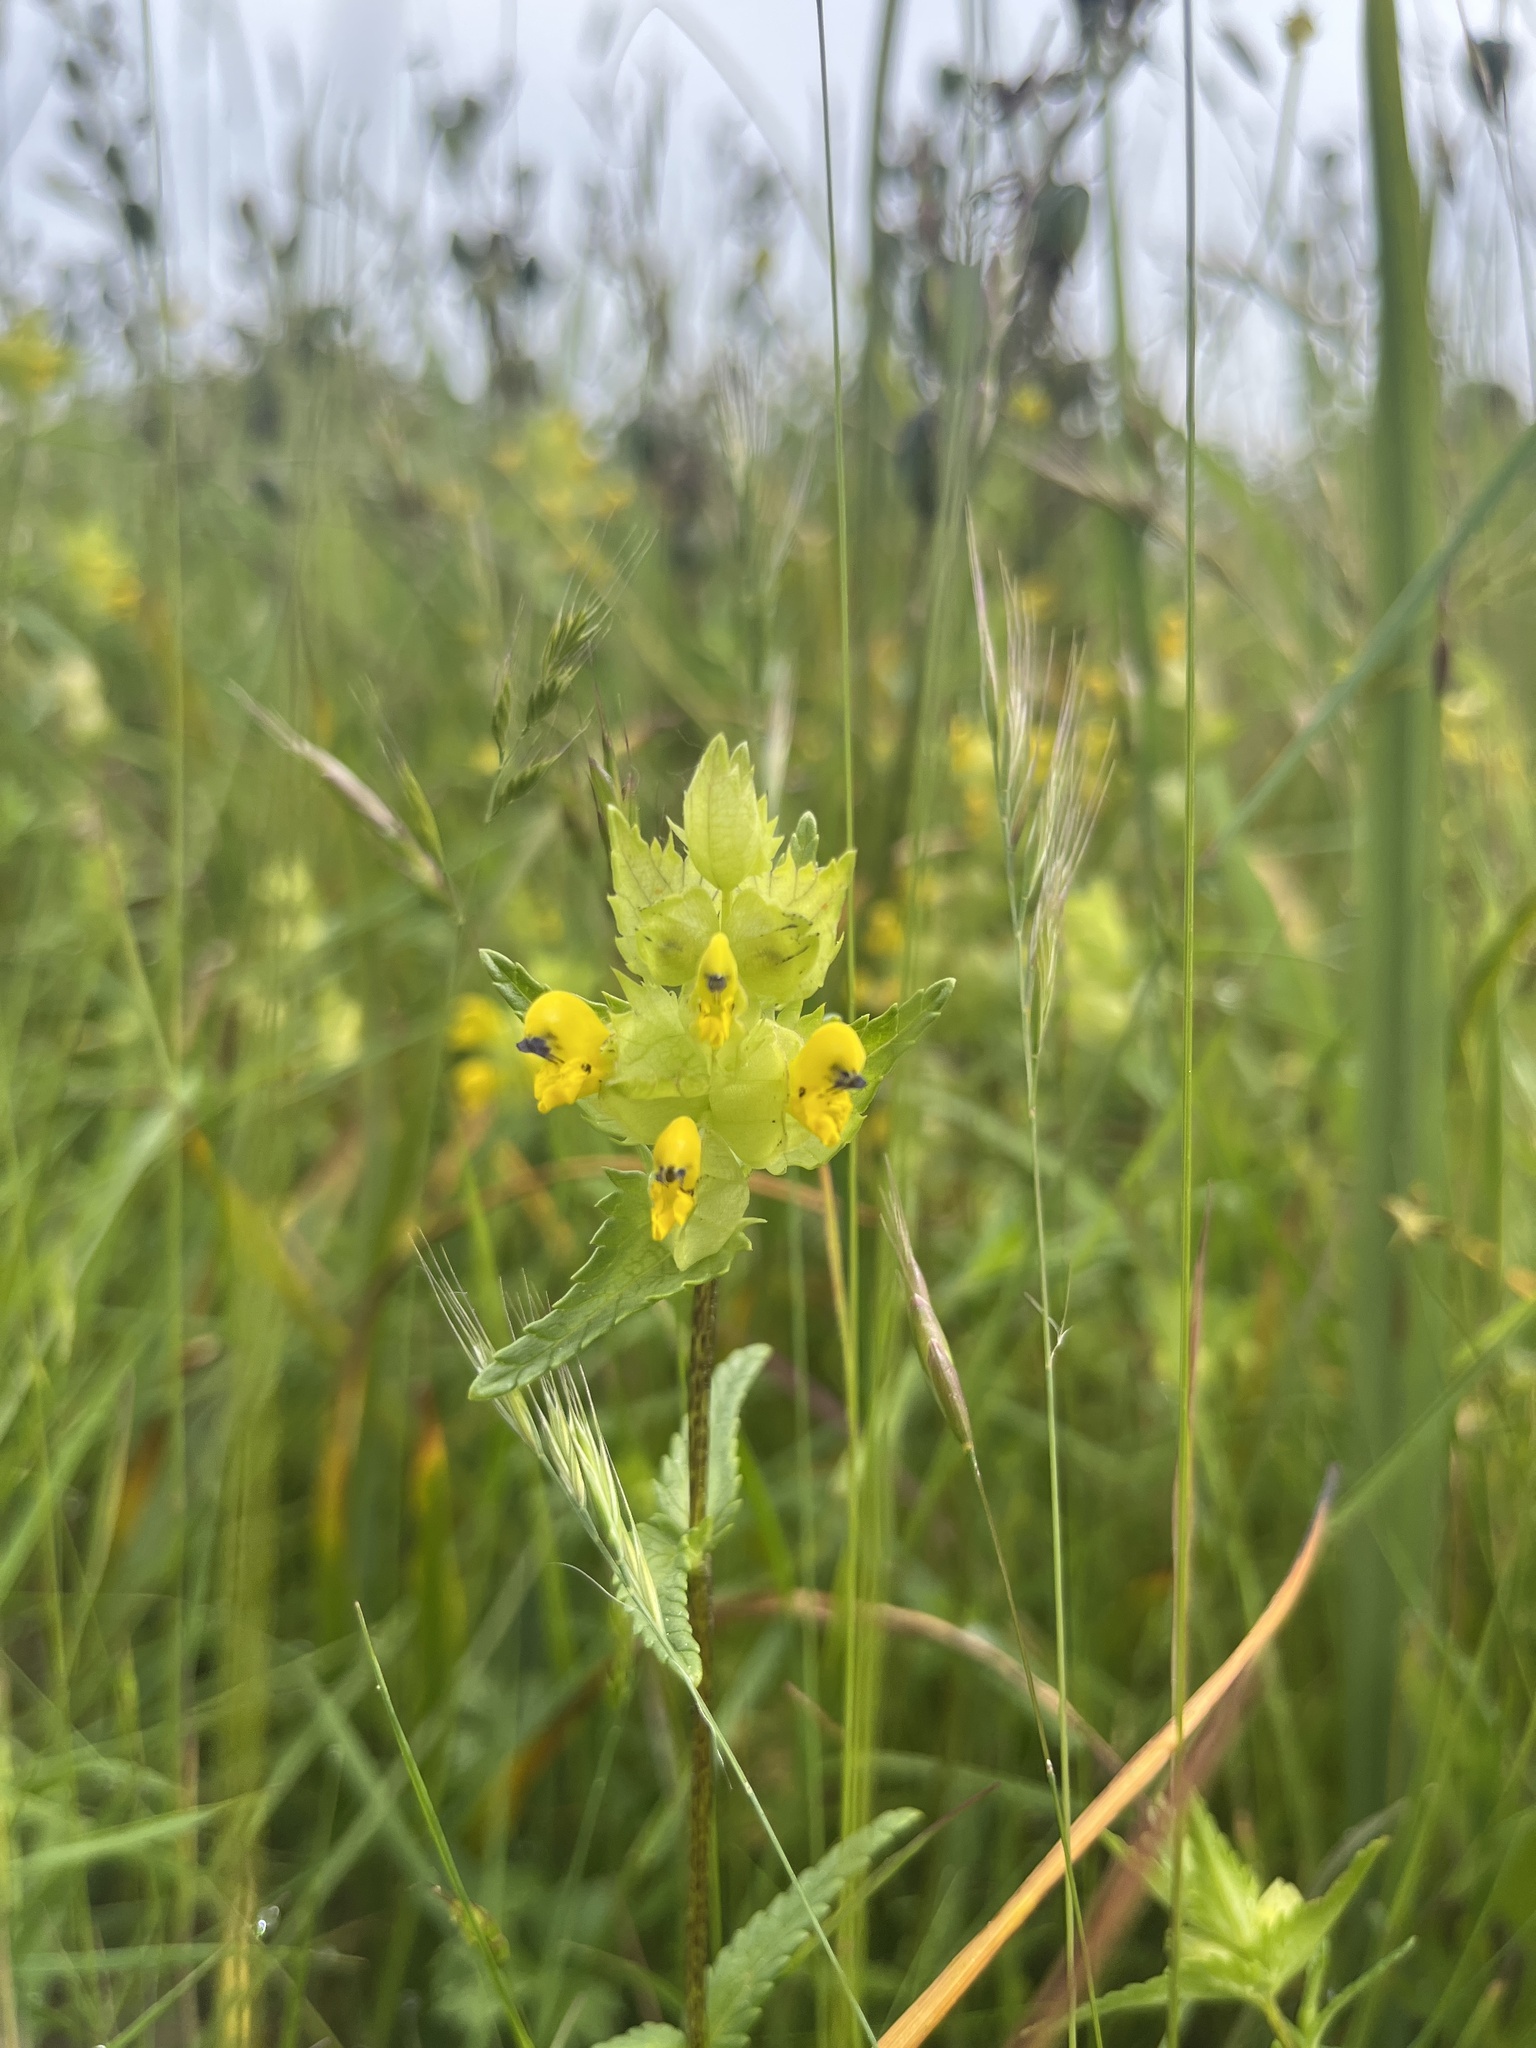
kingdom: Plantae
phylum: Tracheophyta
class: Magnoliopsida
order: Lamiales
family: Orobanchaceae
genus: Rhinanthus
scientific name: Rhinanthus minor
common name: Yellow-rattle
